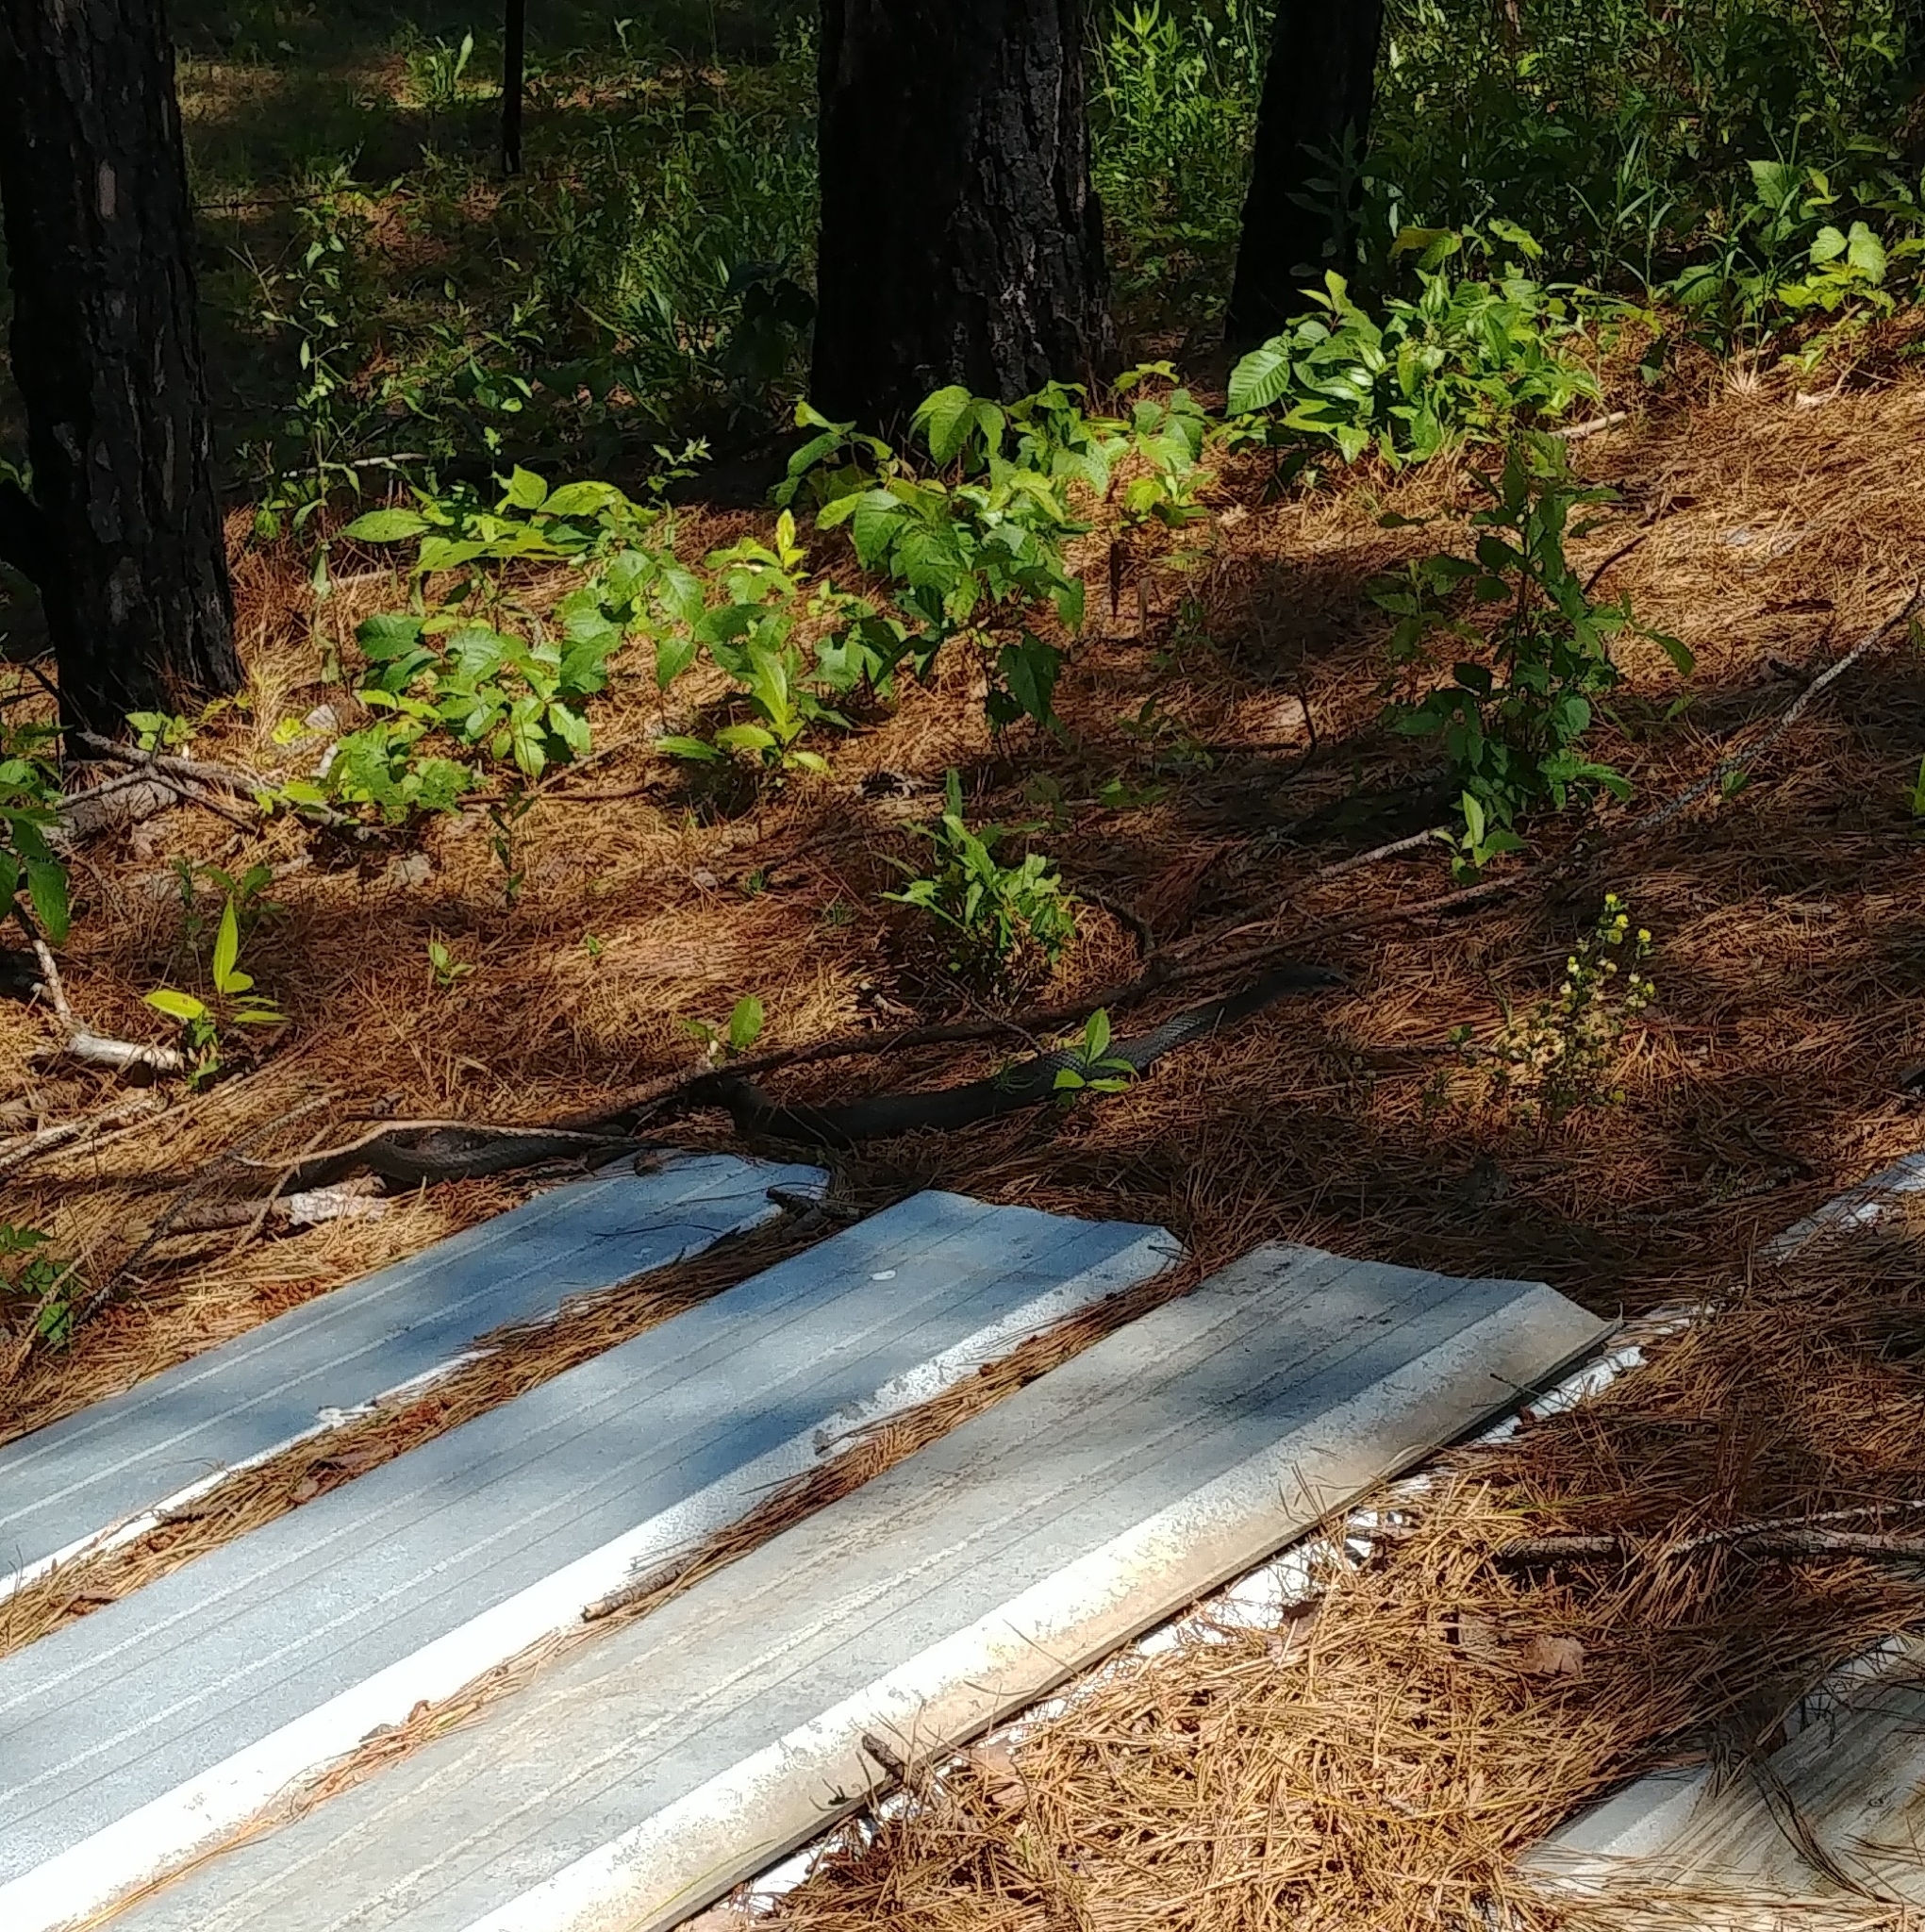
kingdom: Animalia
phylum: Chordata
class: Squamata
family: Colubridae
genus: Coluber
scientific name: Coluber constrictor
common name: Eastern racer
